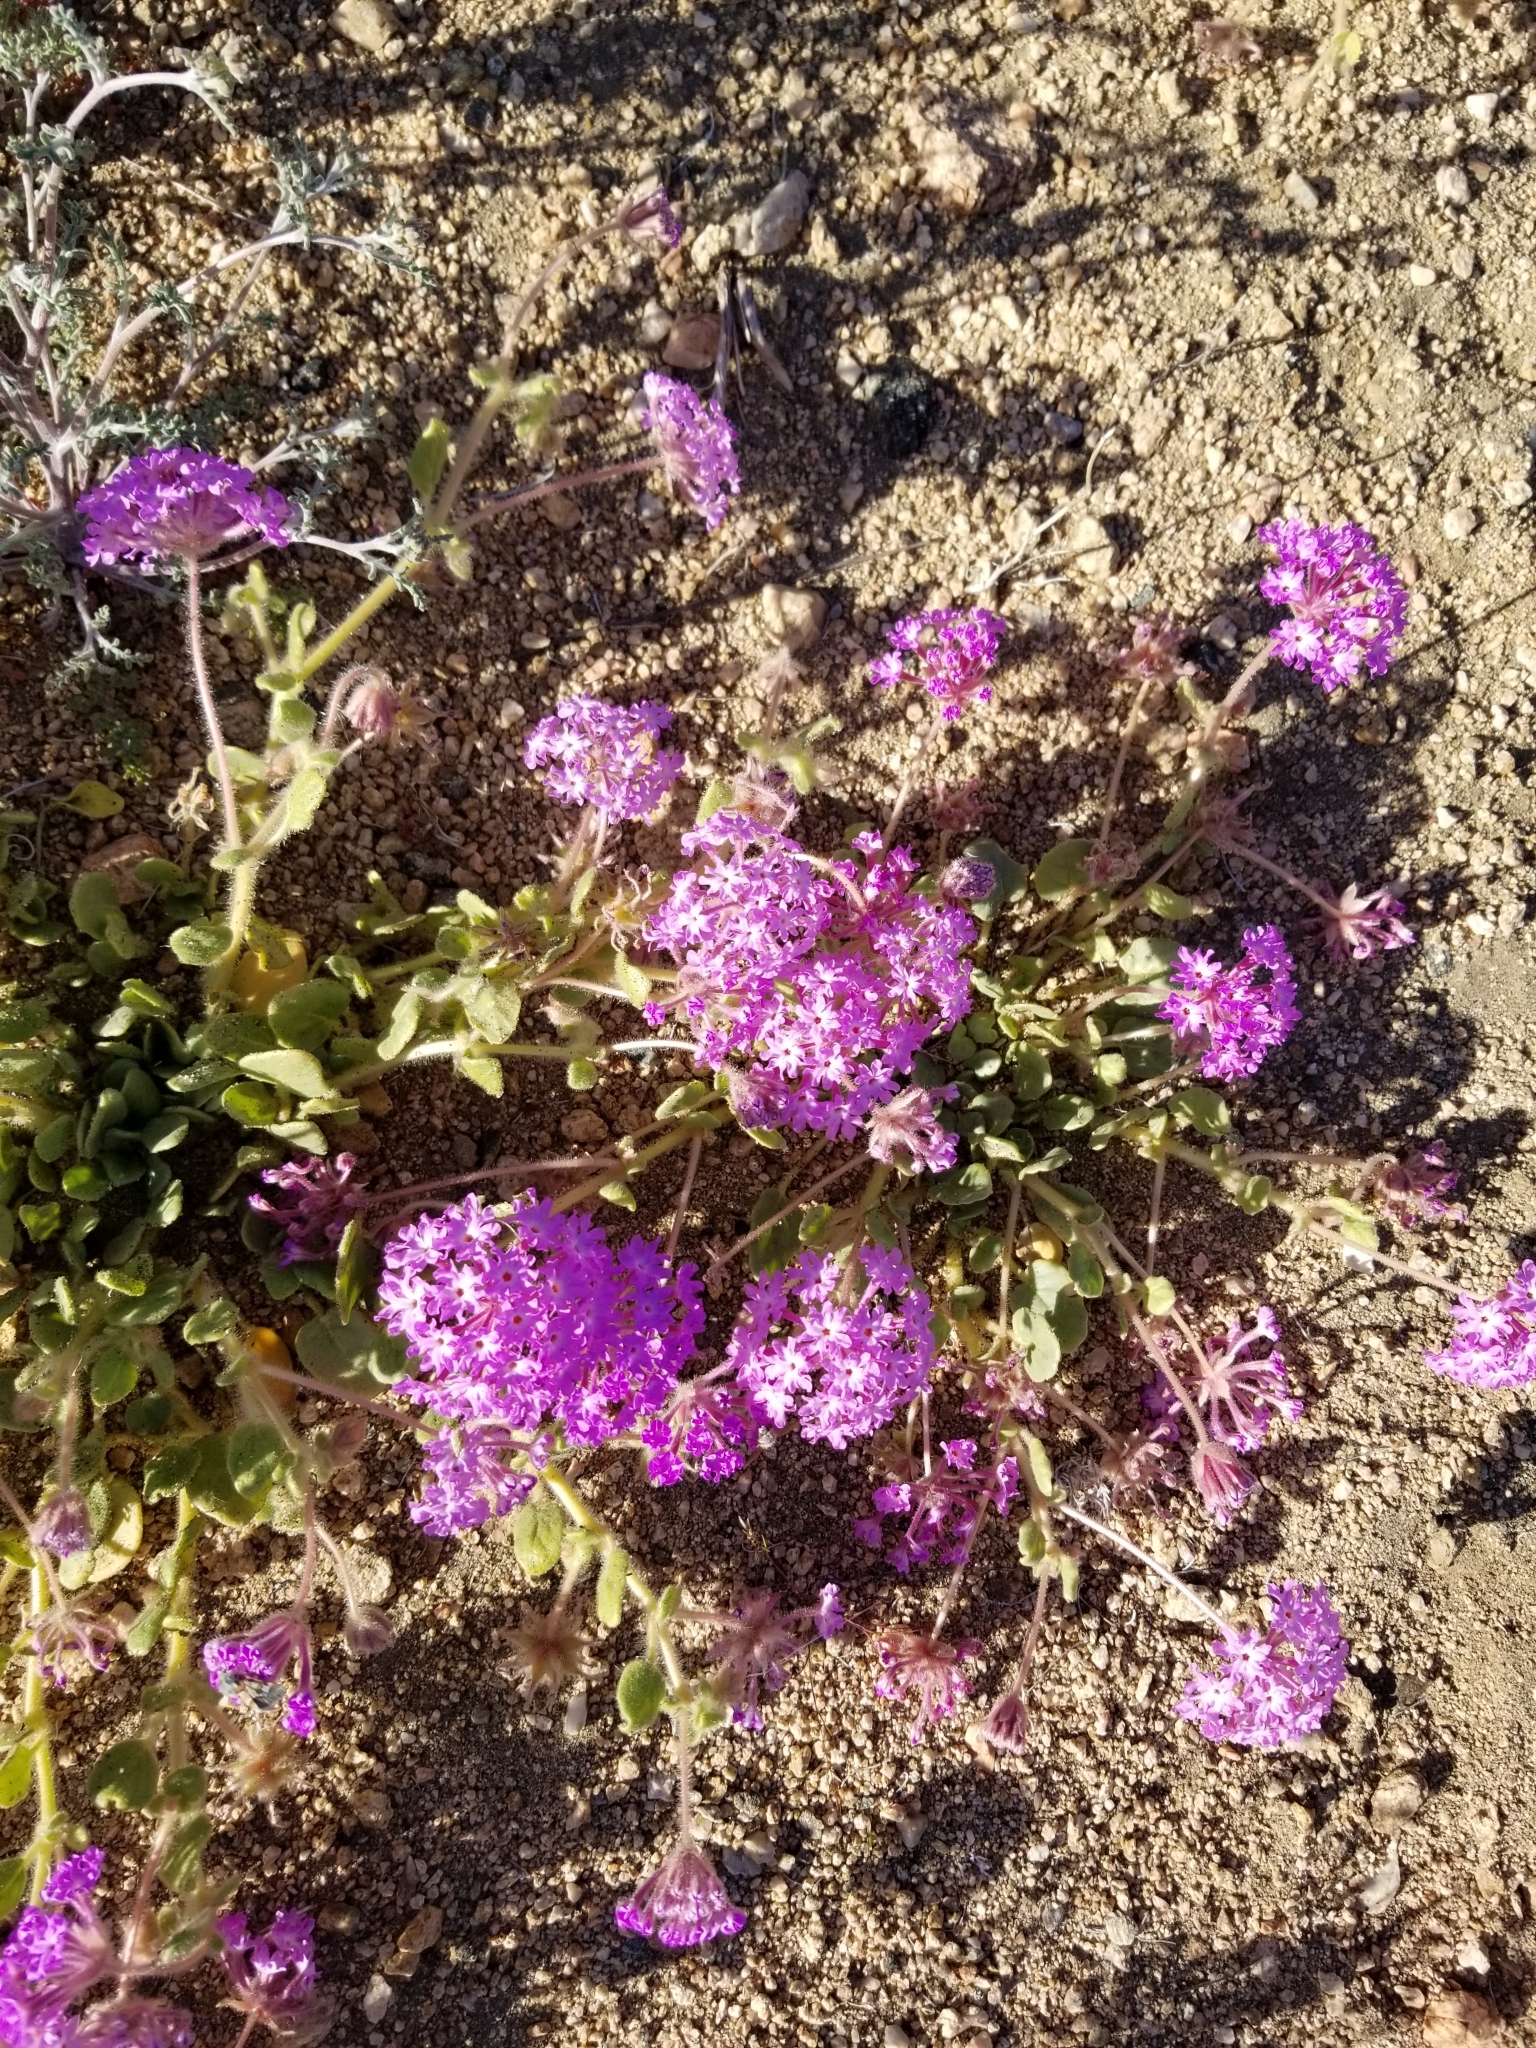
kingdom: Plantae
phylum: Tracheophyta
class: Magnoliopsida
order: Caryophyllales
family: Nyctaginaceae
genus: Abronia
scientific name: Abronia villosa
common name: Desert sand-verbena
